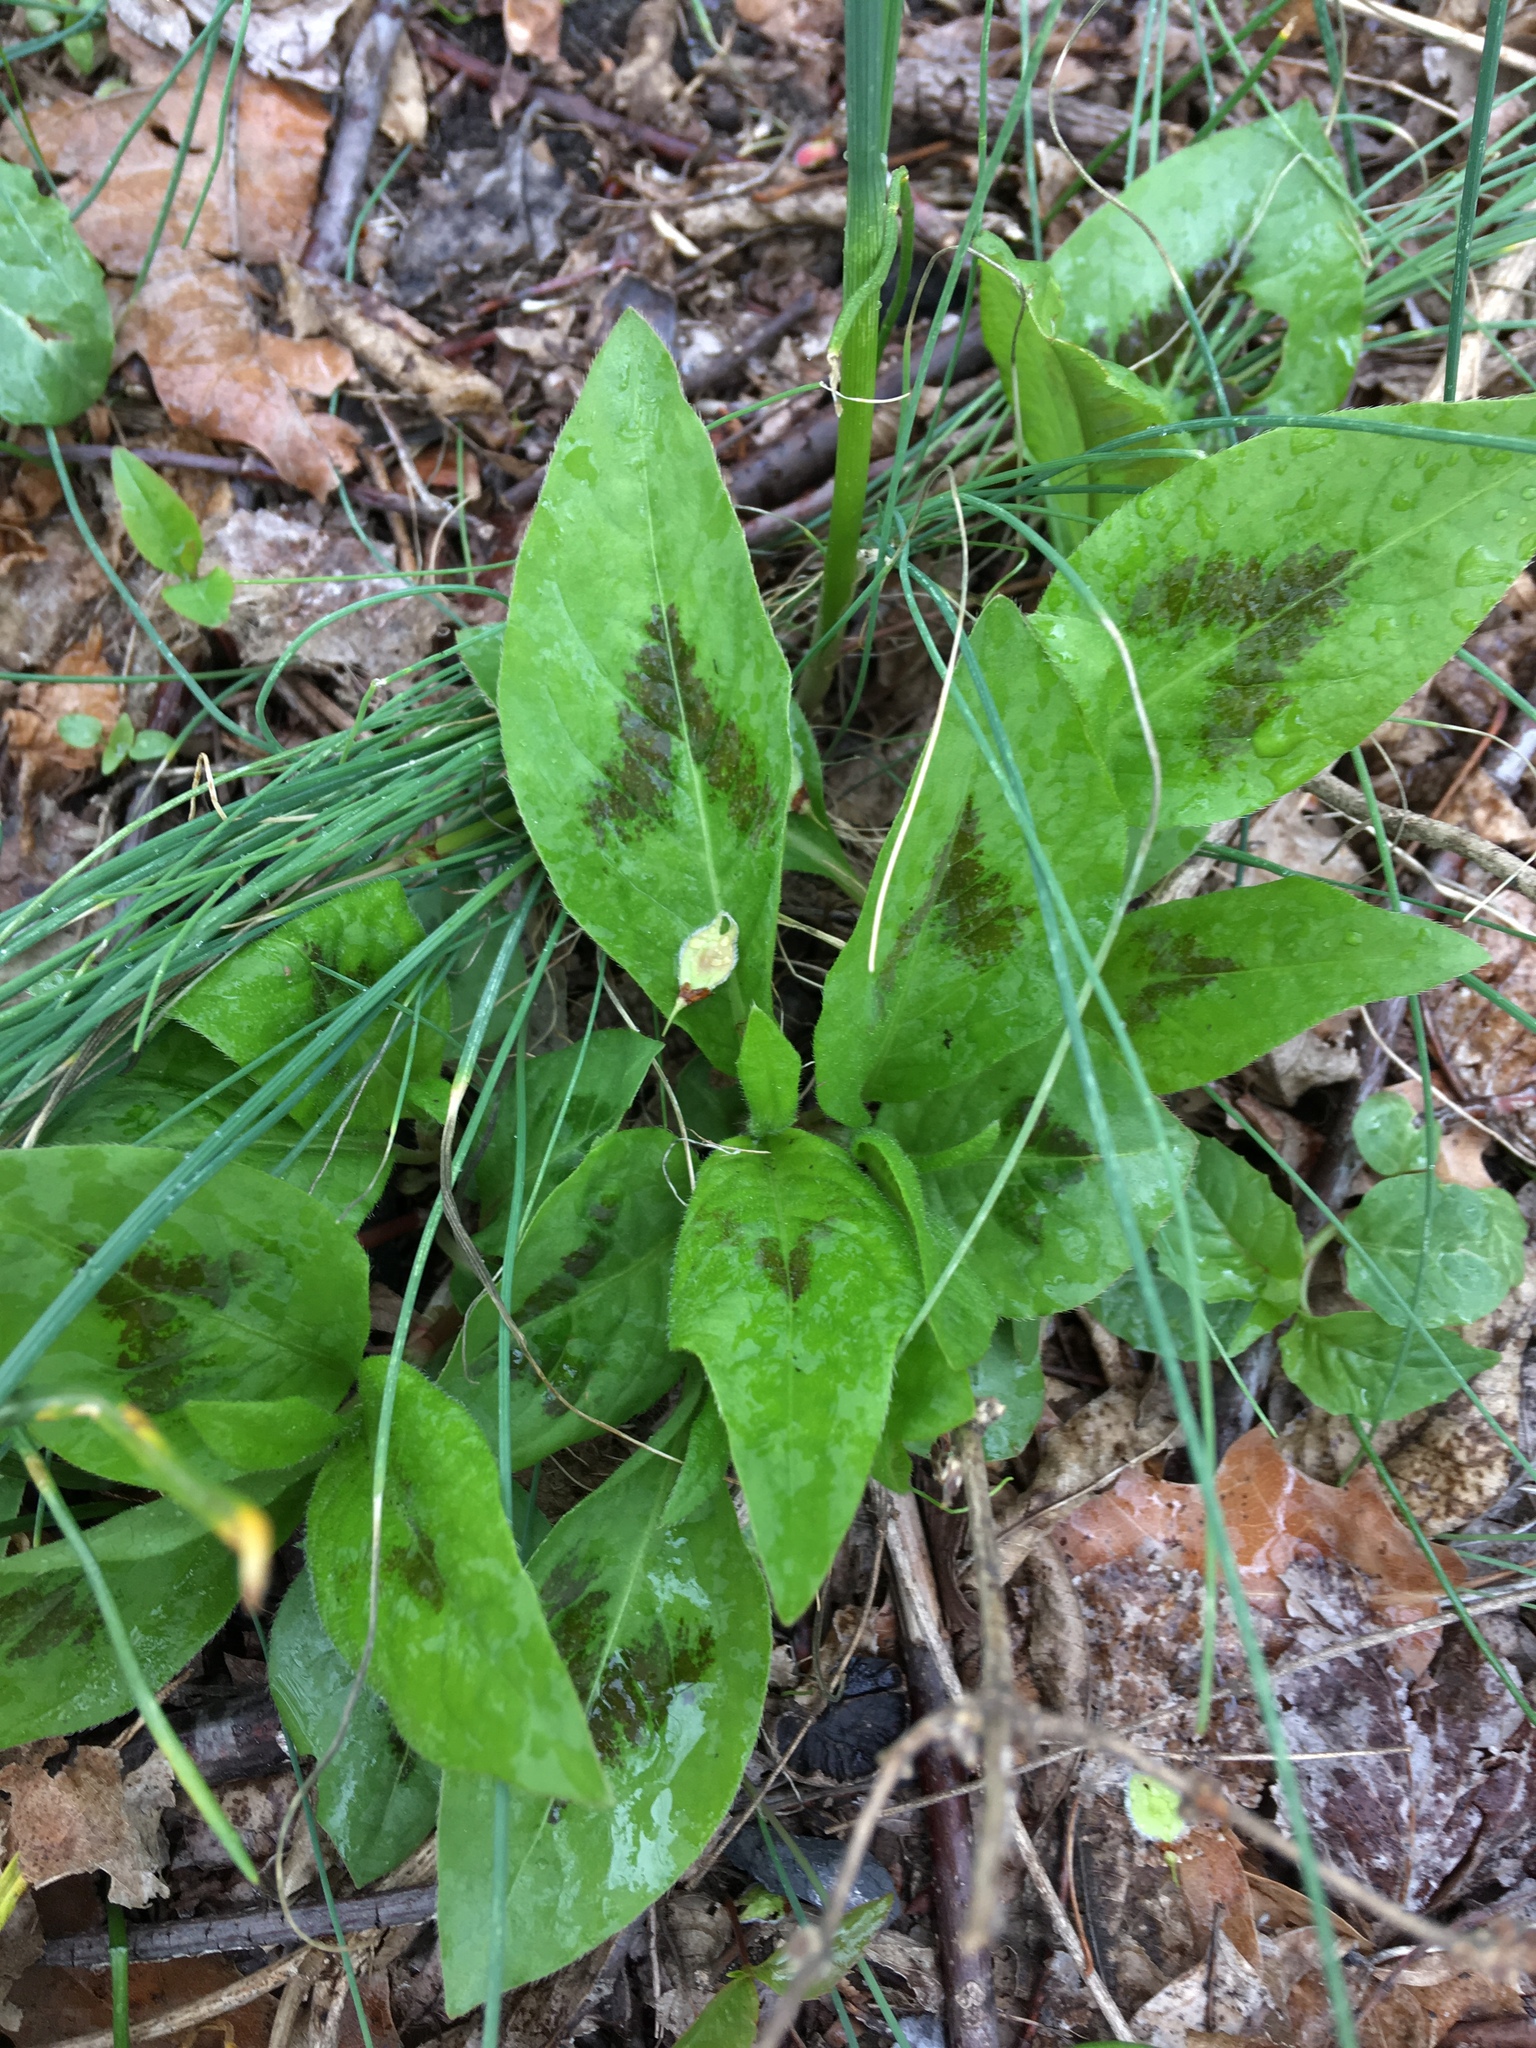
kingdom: Plantae
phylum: Tracheophyta
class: Magnoliopsida
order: Caryophyllales
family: Polygonaceae
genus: Persicaria
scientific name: Persicaria virginiana
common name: Jumpseed
